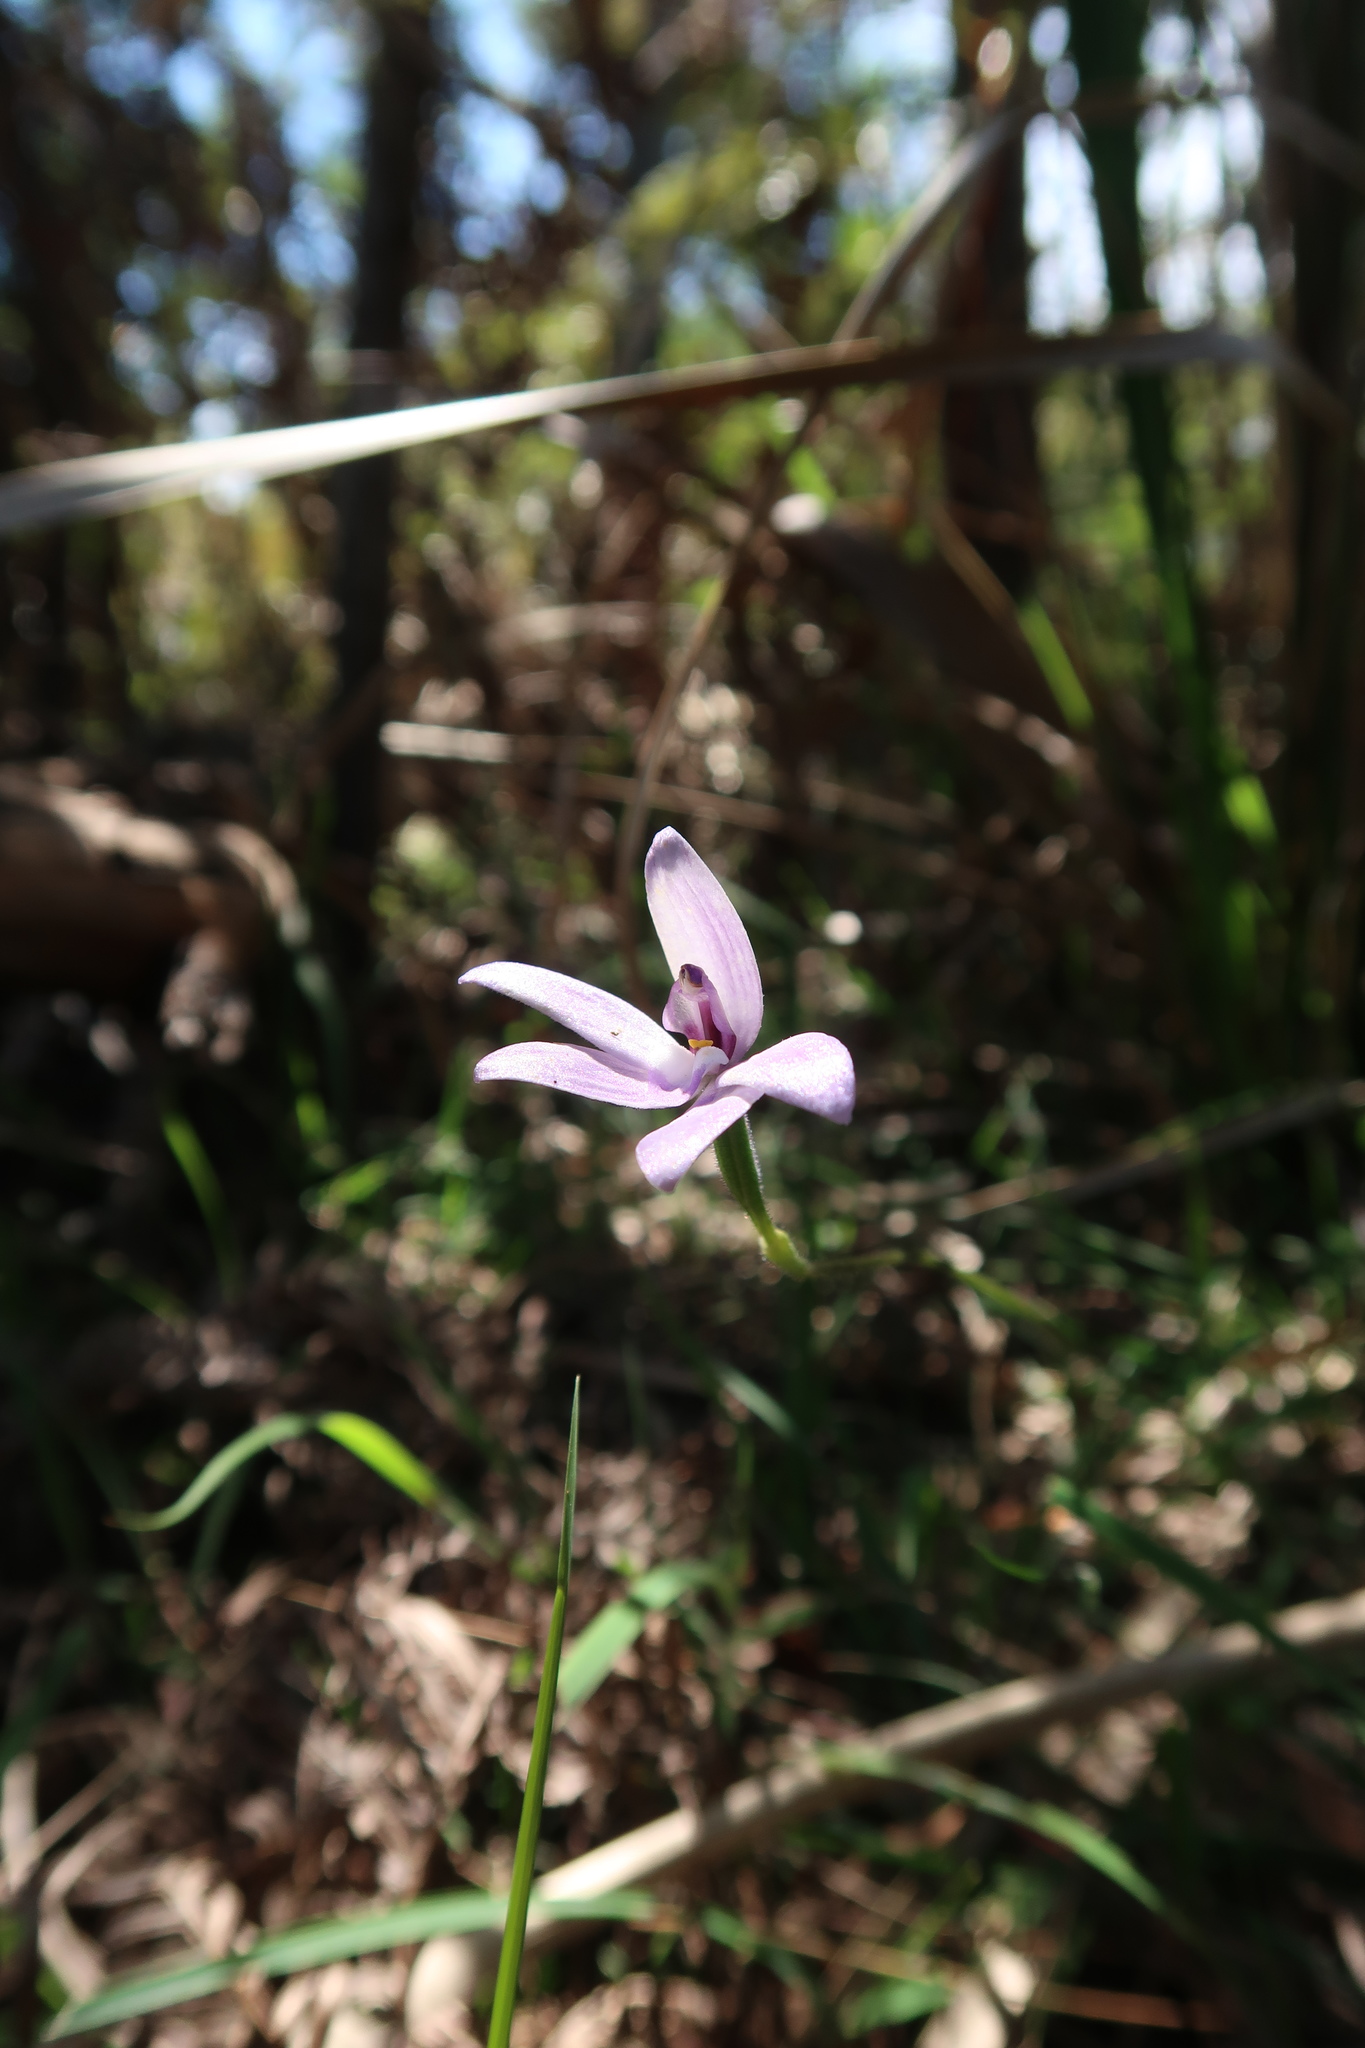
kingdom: Plantae
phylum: Tracheophyta
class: Liliopsida
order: Asparagales
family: Orchidaceae
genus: Caladenia
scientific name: Caladenia major
